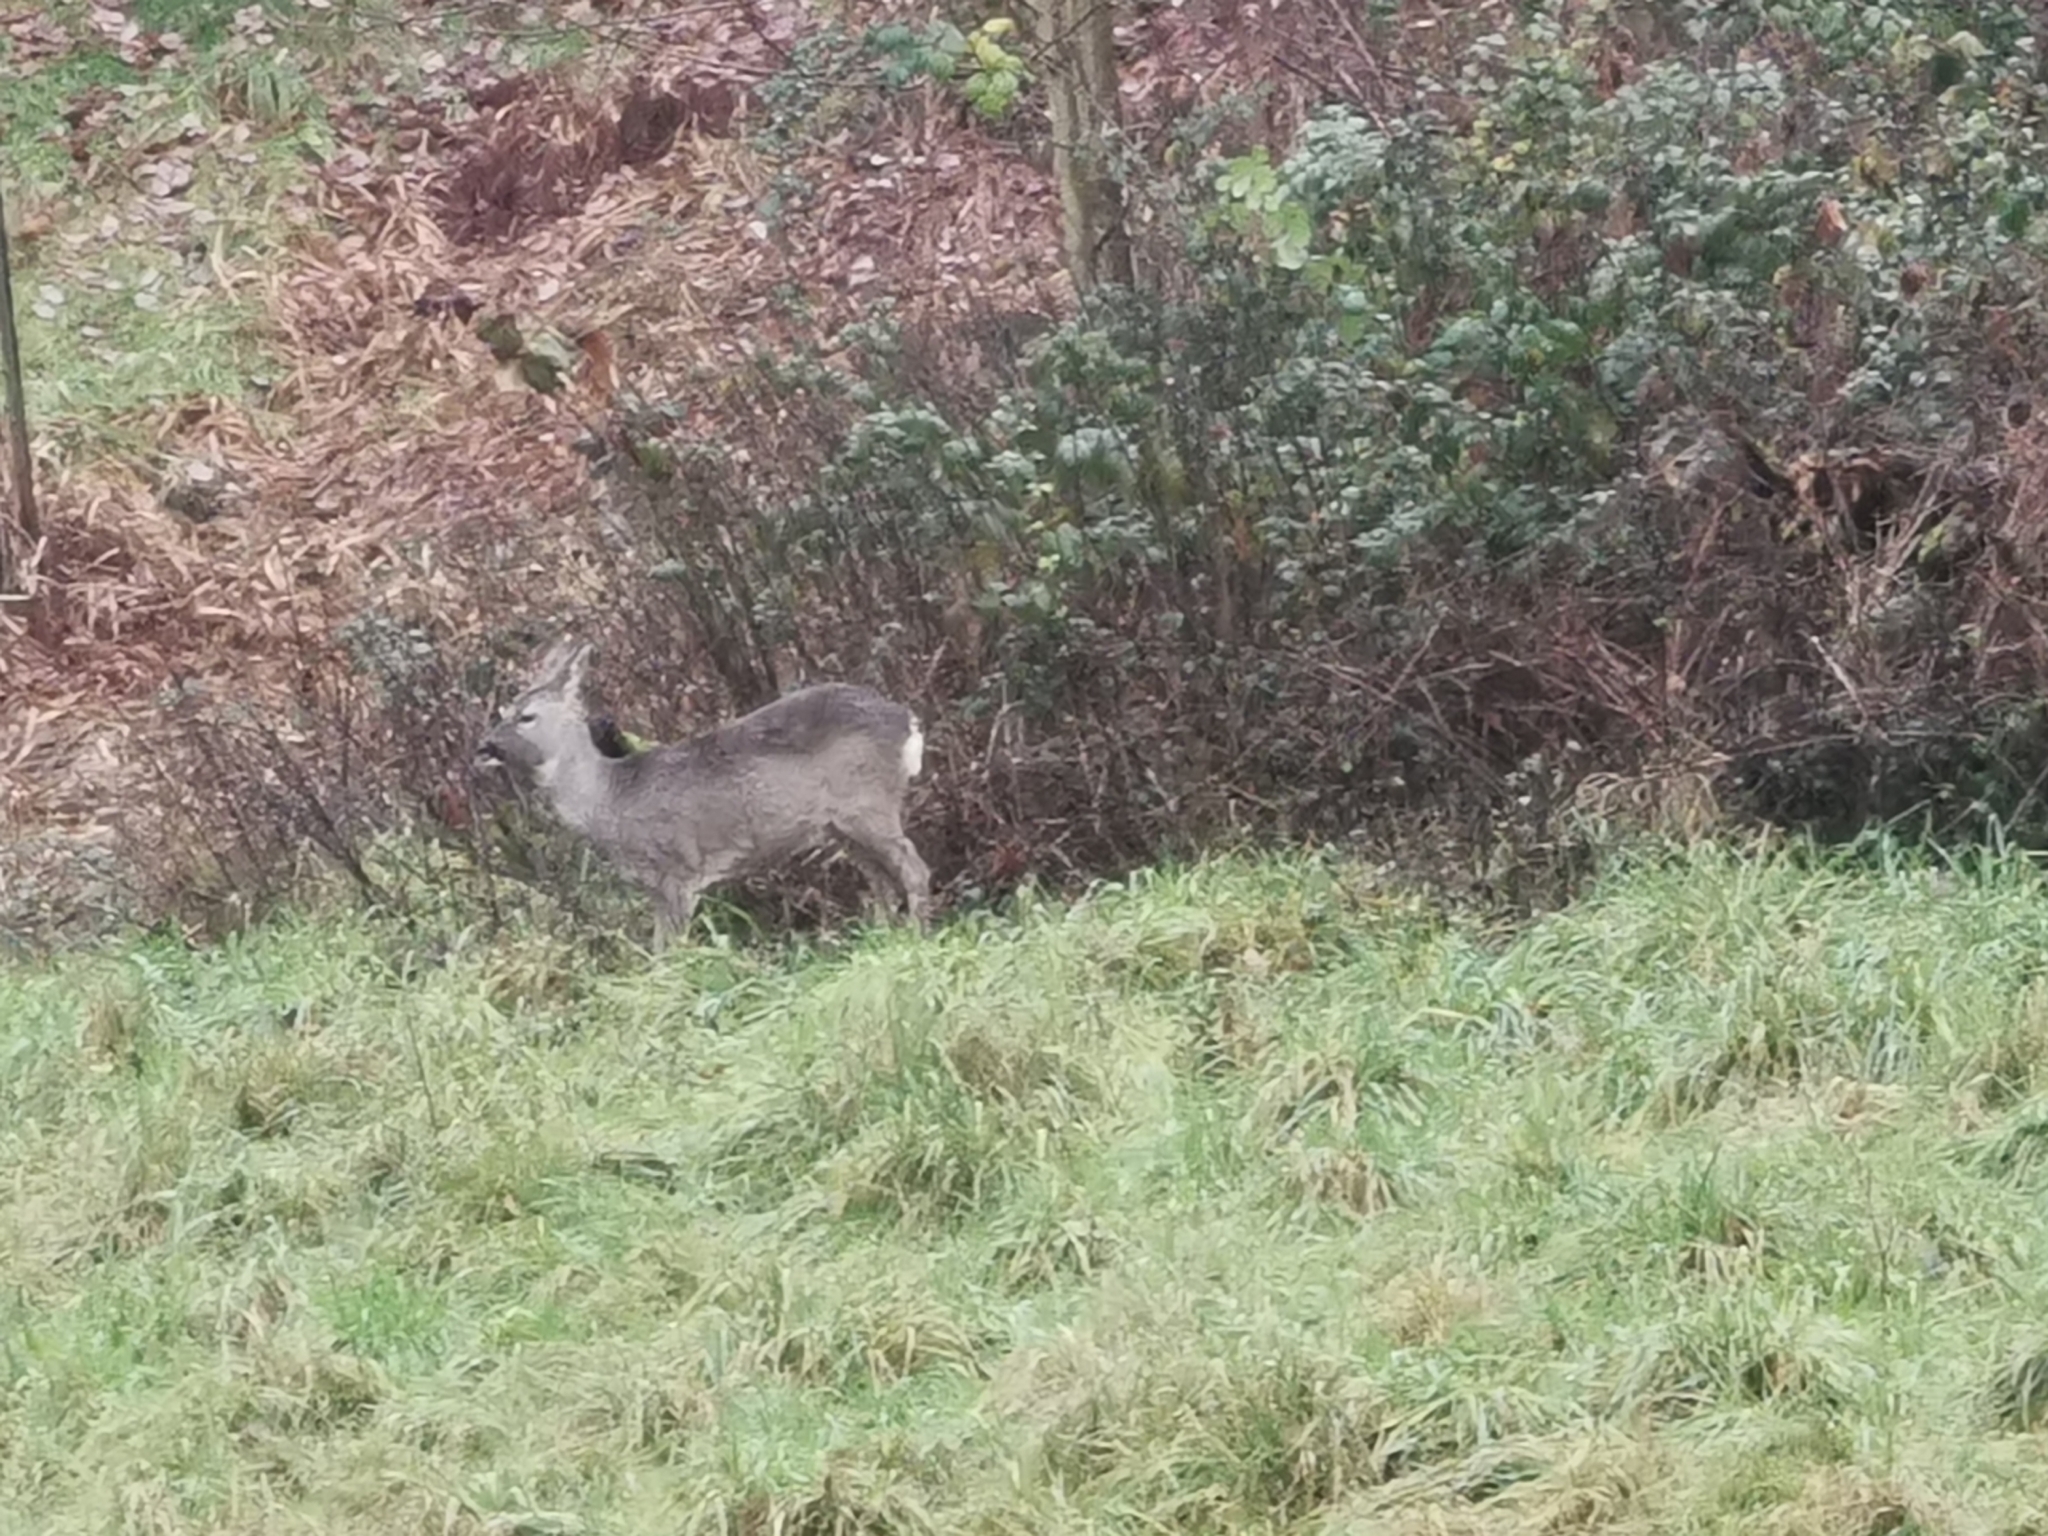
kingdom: Animalia
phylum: Chordata
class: Mammalia
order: Artiodactyla
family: Cervidae
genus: Capreolus
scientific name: Capreolus capreolus
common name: Western roe deer
